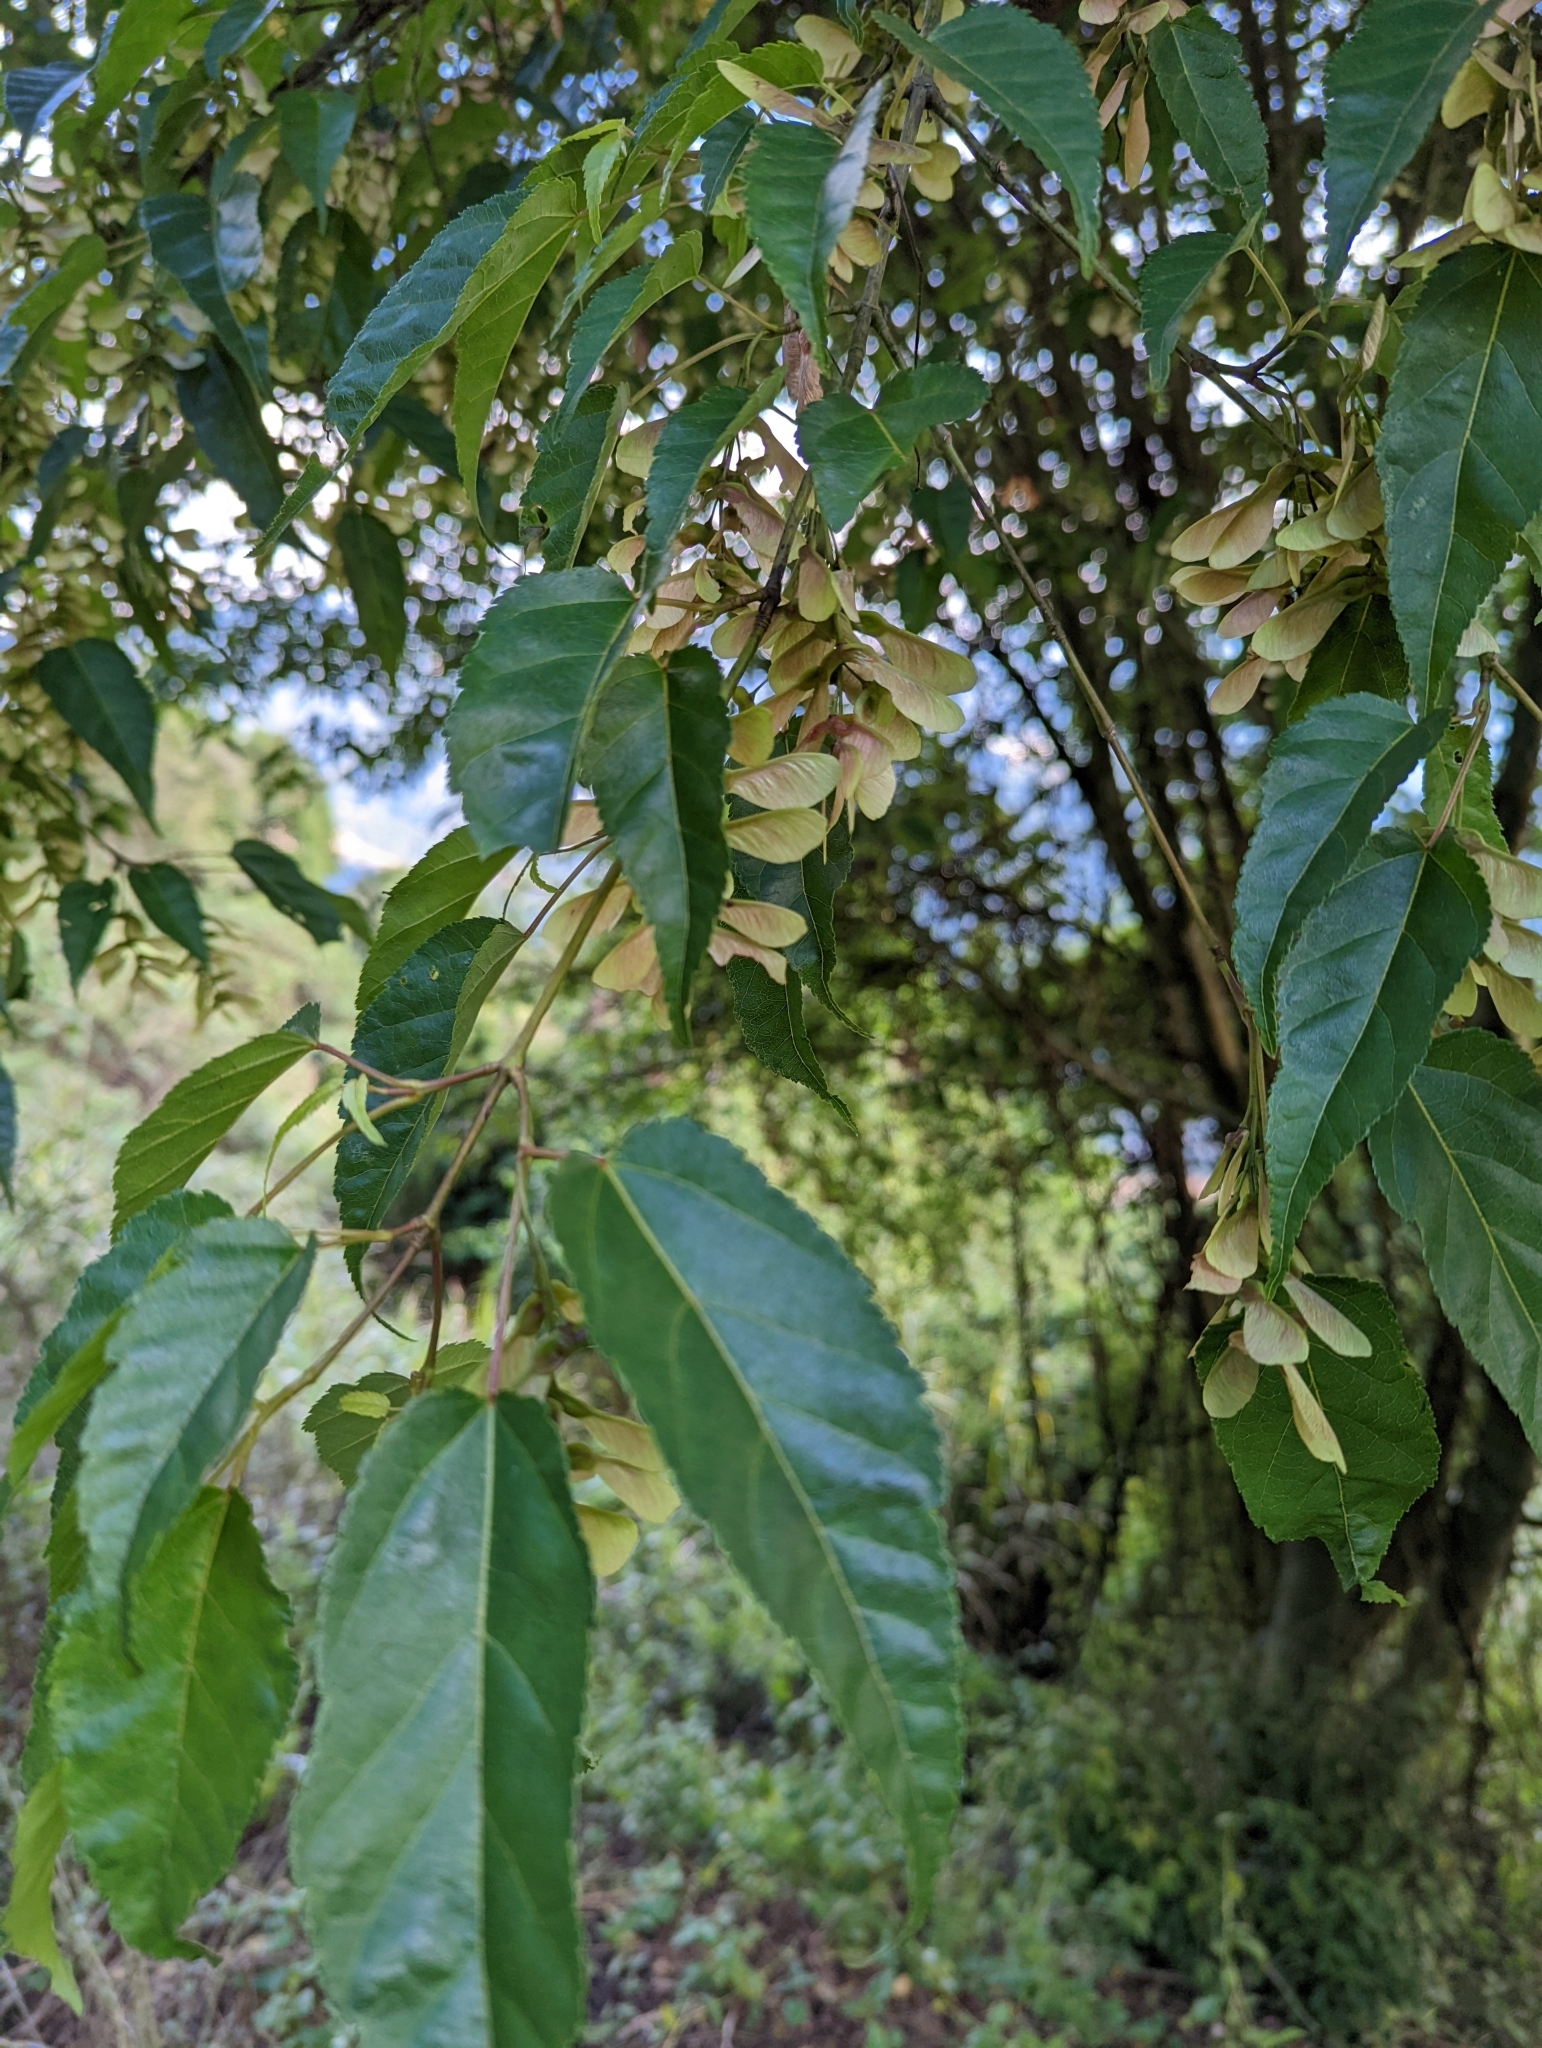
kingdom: Plantae
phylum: Tracheophyta
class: Magnoliopsida
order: Sapindales
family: Sapindaceae
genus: Acer
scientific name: Acer caudatifolium
